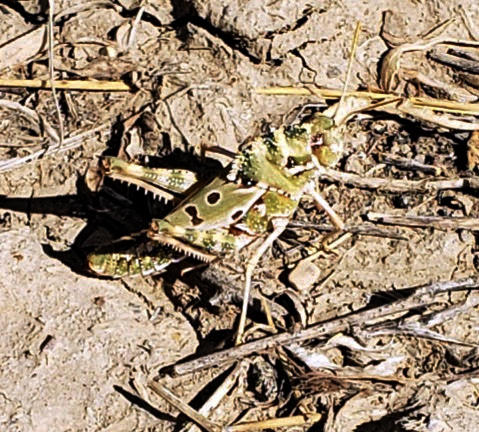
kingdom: Animalia
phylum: Arthropoda
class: Insecta
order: Orthoptera
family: Acrididae
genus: Tropidolophus
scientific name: Tropidolophus formosus
